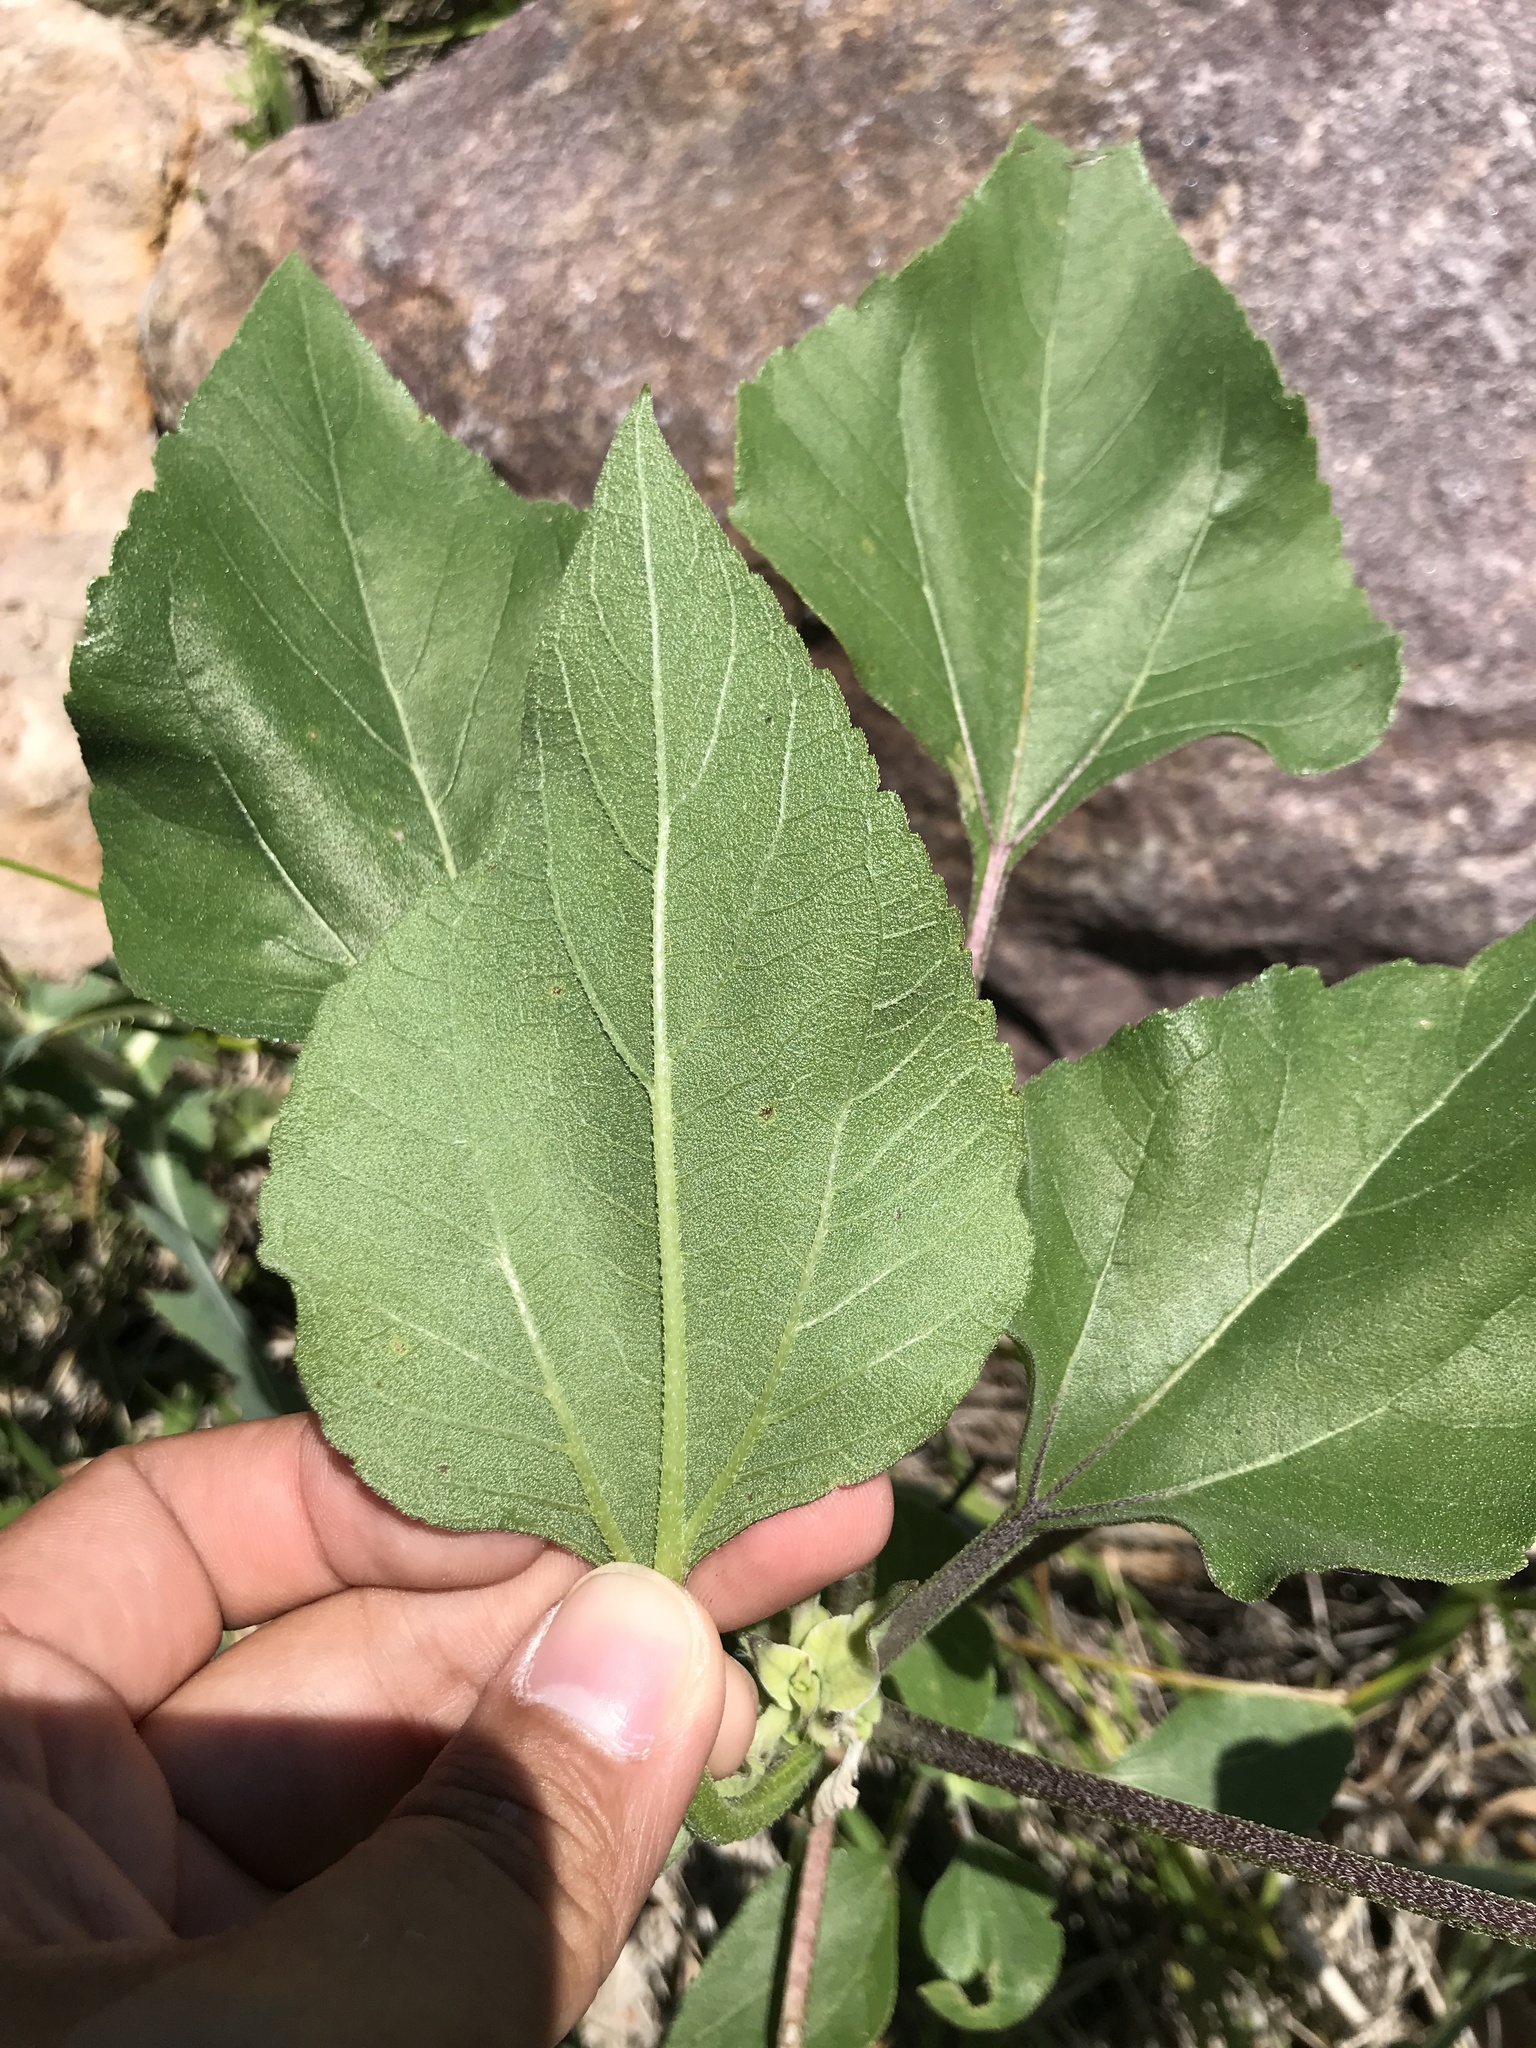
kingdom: Plantae
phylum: Tracheophyta
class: Magnoliopsida
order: Asterales
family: Asteraceae
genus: Helianthus
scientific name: Helianthus annuus
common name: Sunflower
